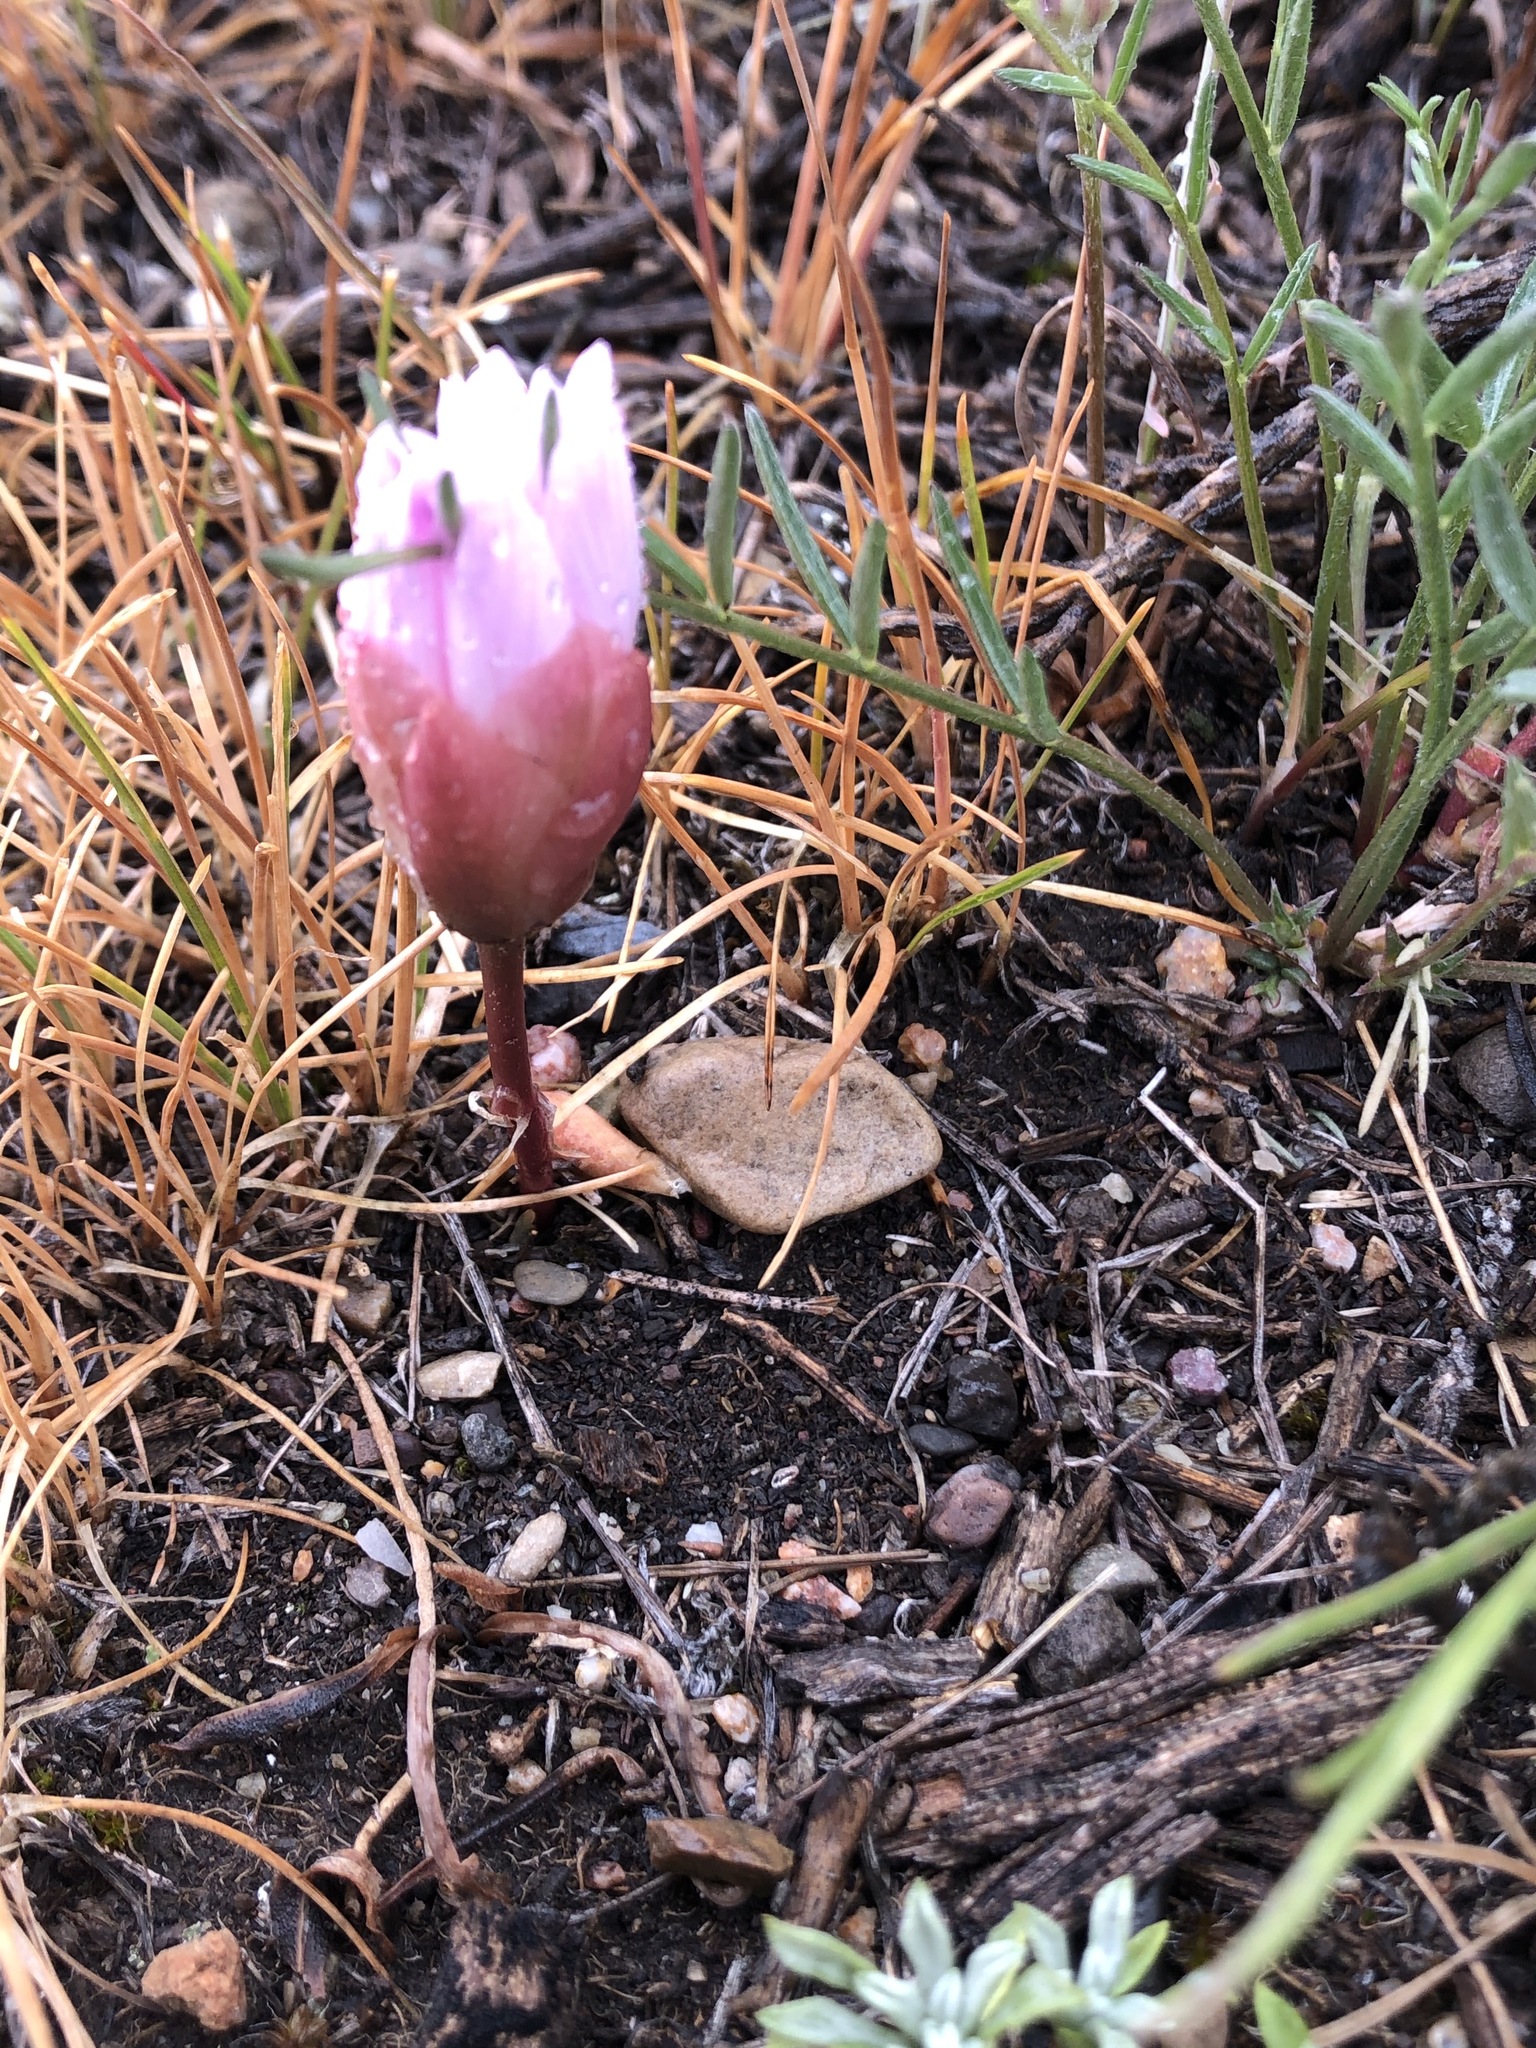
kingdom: Plantae
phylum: Tracheophyta
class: Magnoliopsida
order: Caryophyllales
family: Montiaceae
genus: Lewisia
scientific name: Lewisia rediviva
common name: Bitter-root
